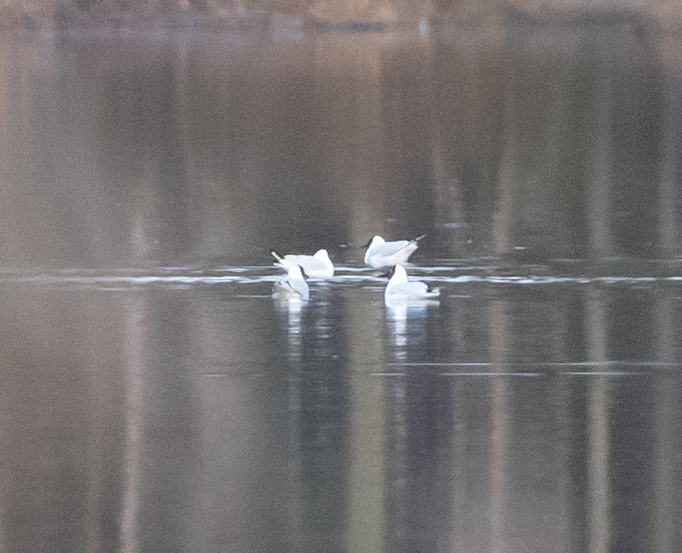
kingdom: Animalia
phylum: Chordata
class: Aves
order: Charadriiformes
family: Laridae
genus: Chroicocephalus
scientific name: Chroicocephalus ridibundus
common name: Black-headed gull
